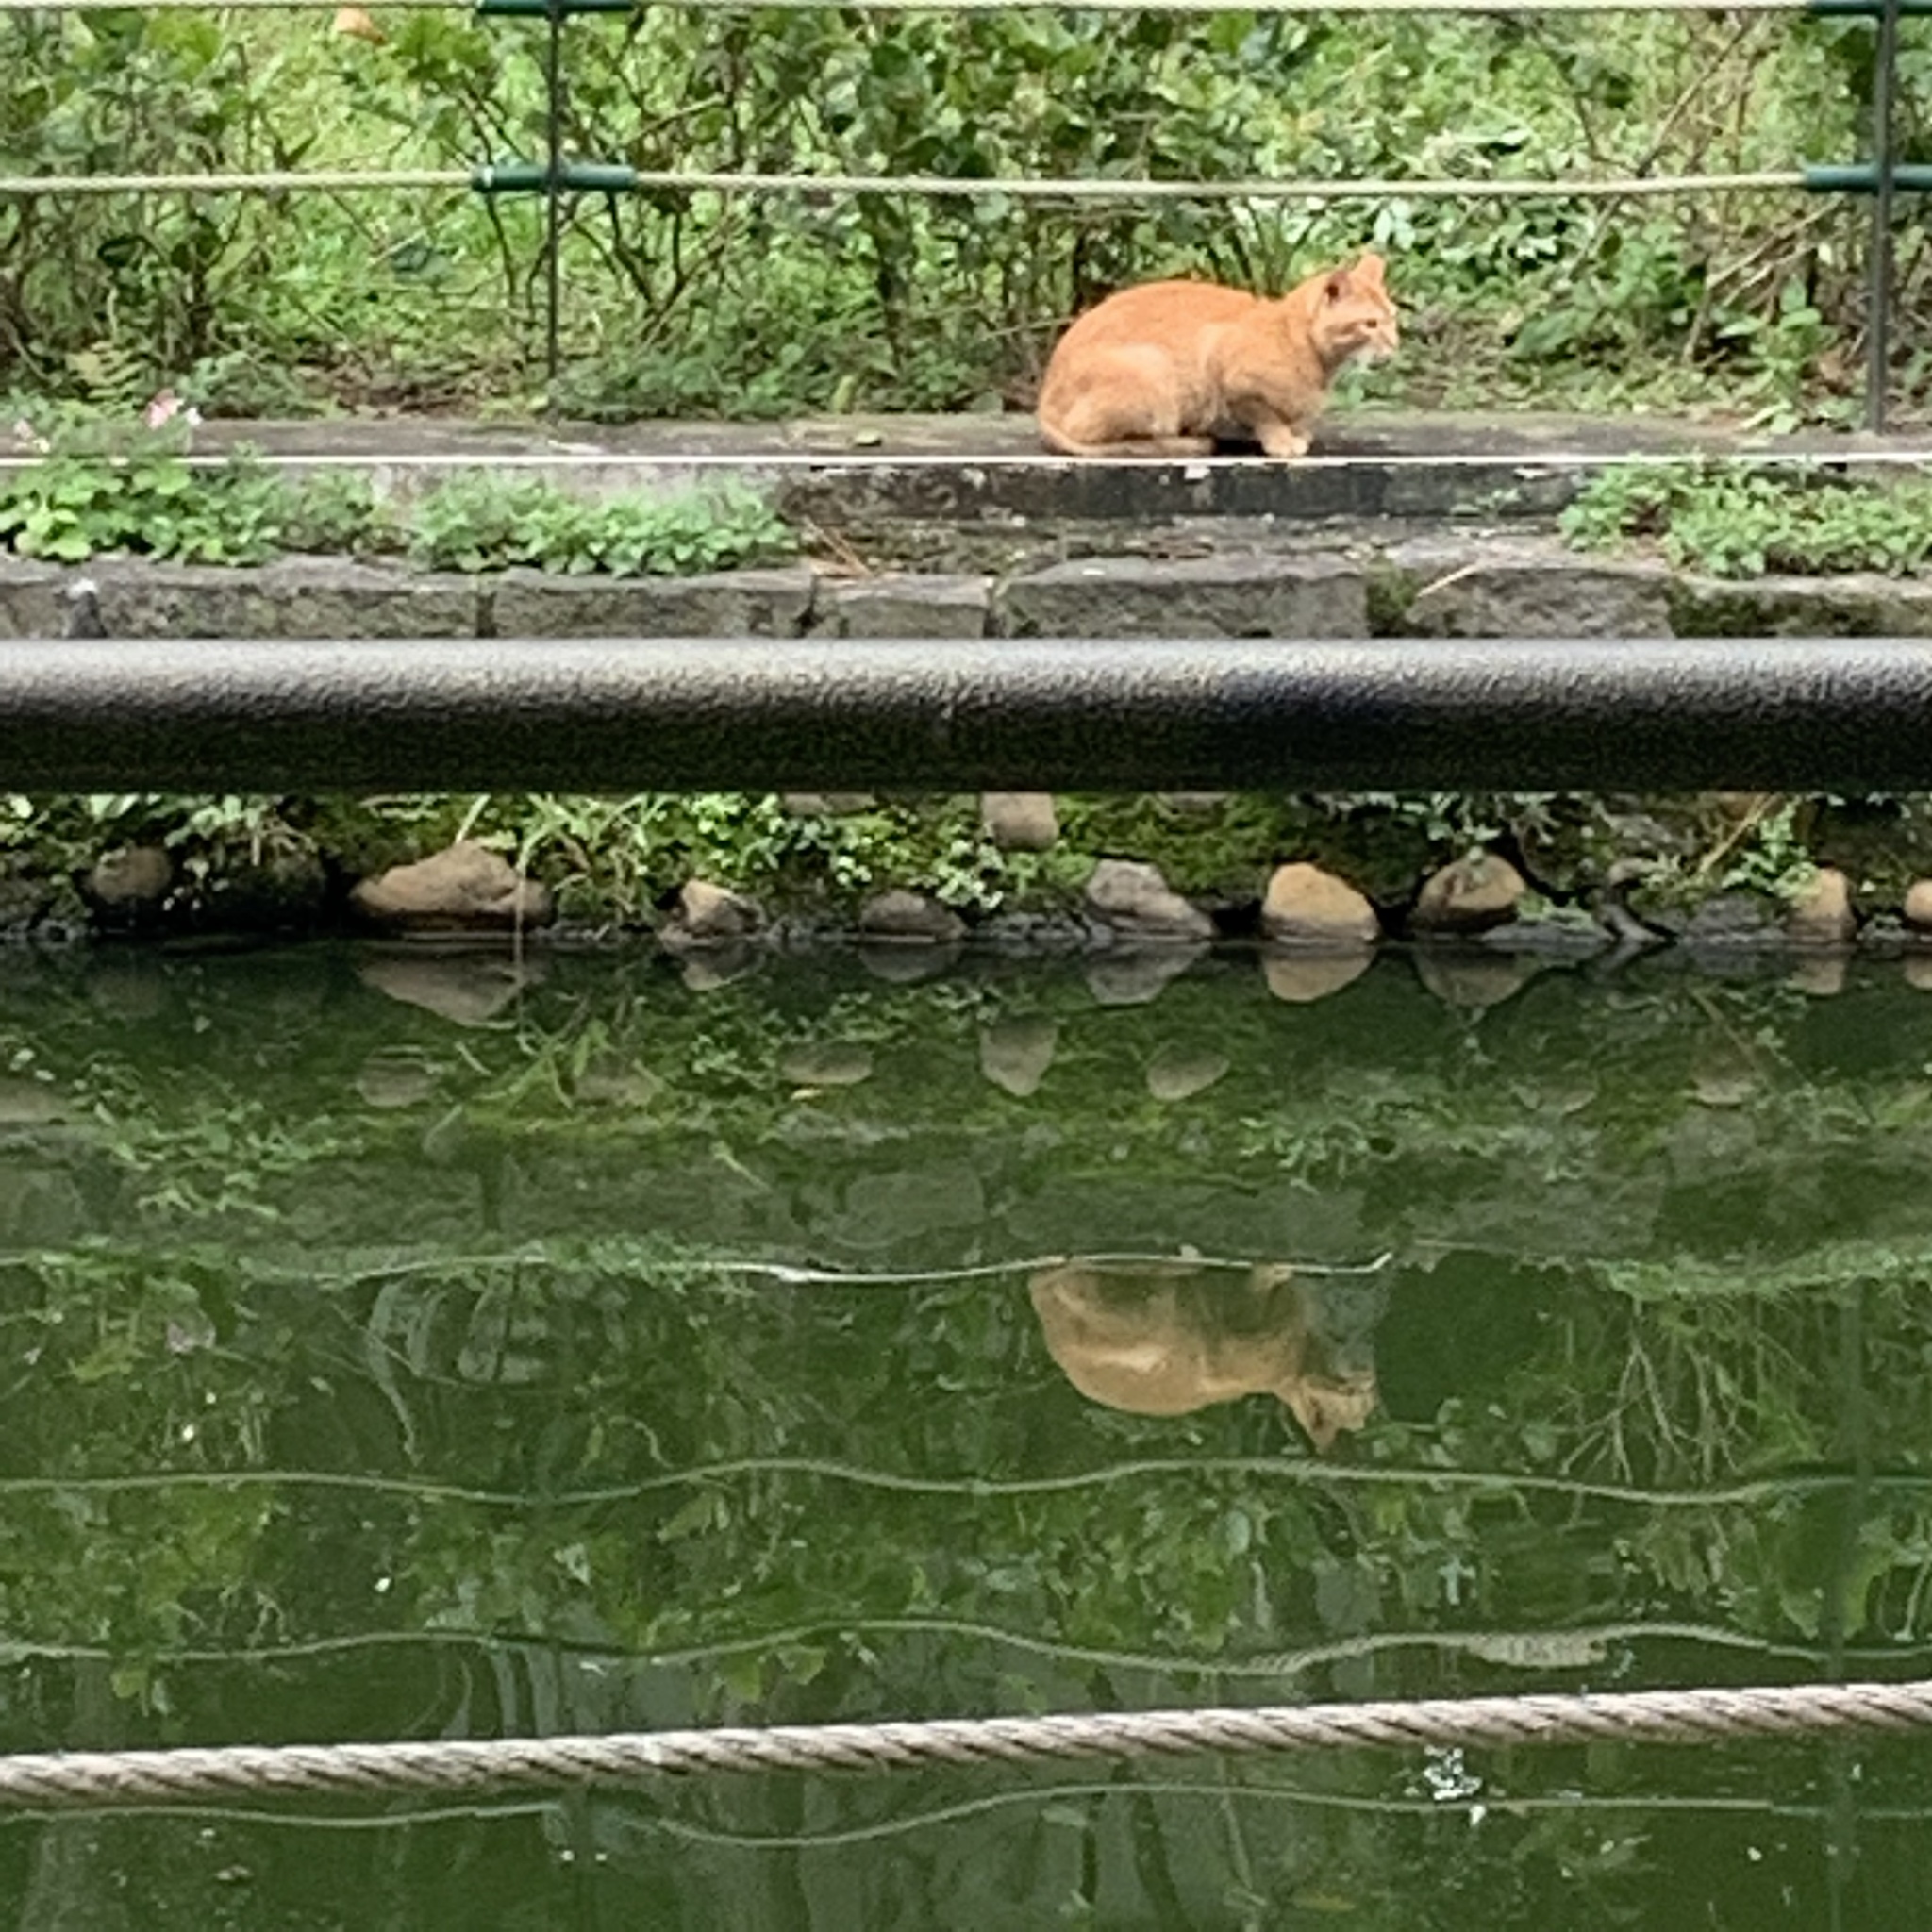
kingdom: Animalia
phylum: Chordata
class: Mammalia
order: Carnivora
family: Felidae
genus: Felis
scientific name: Felis catus
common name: Domestic cat
